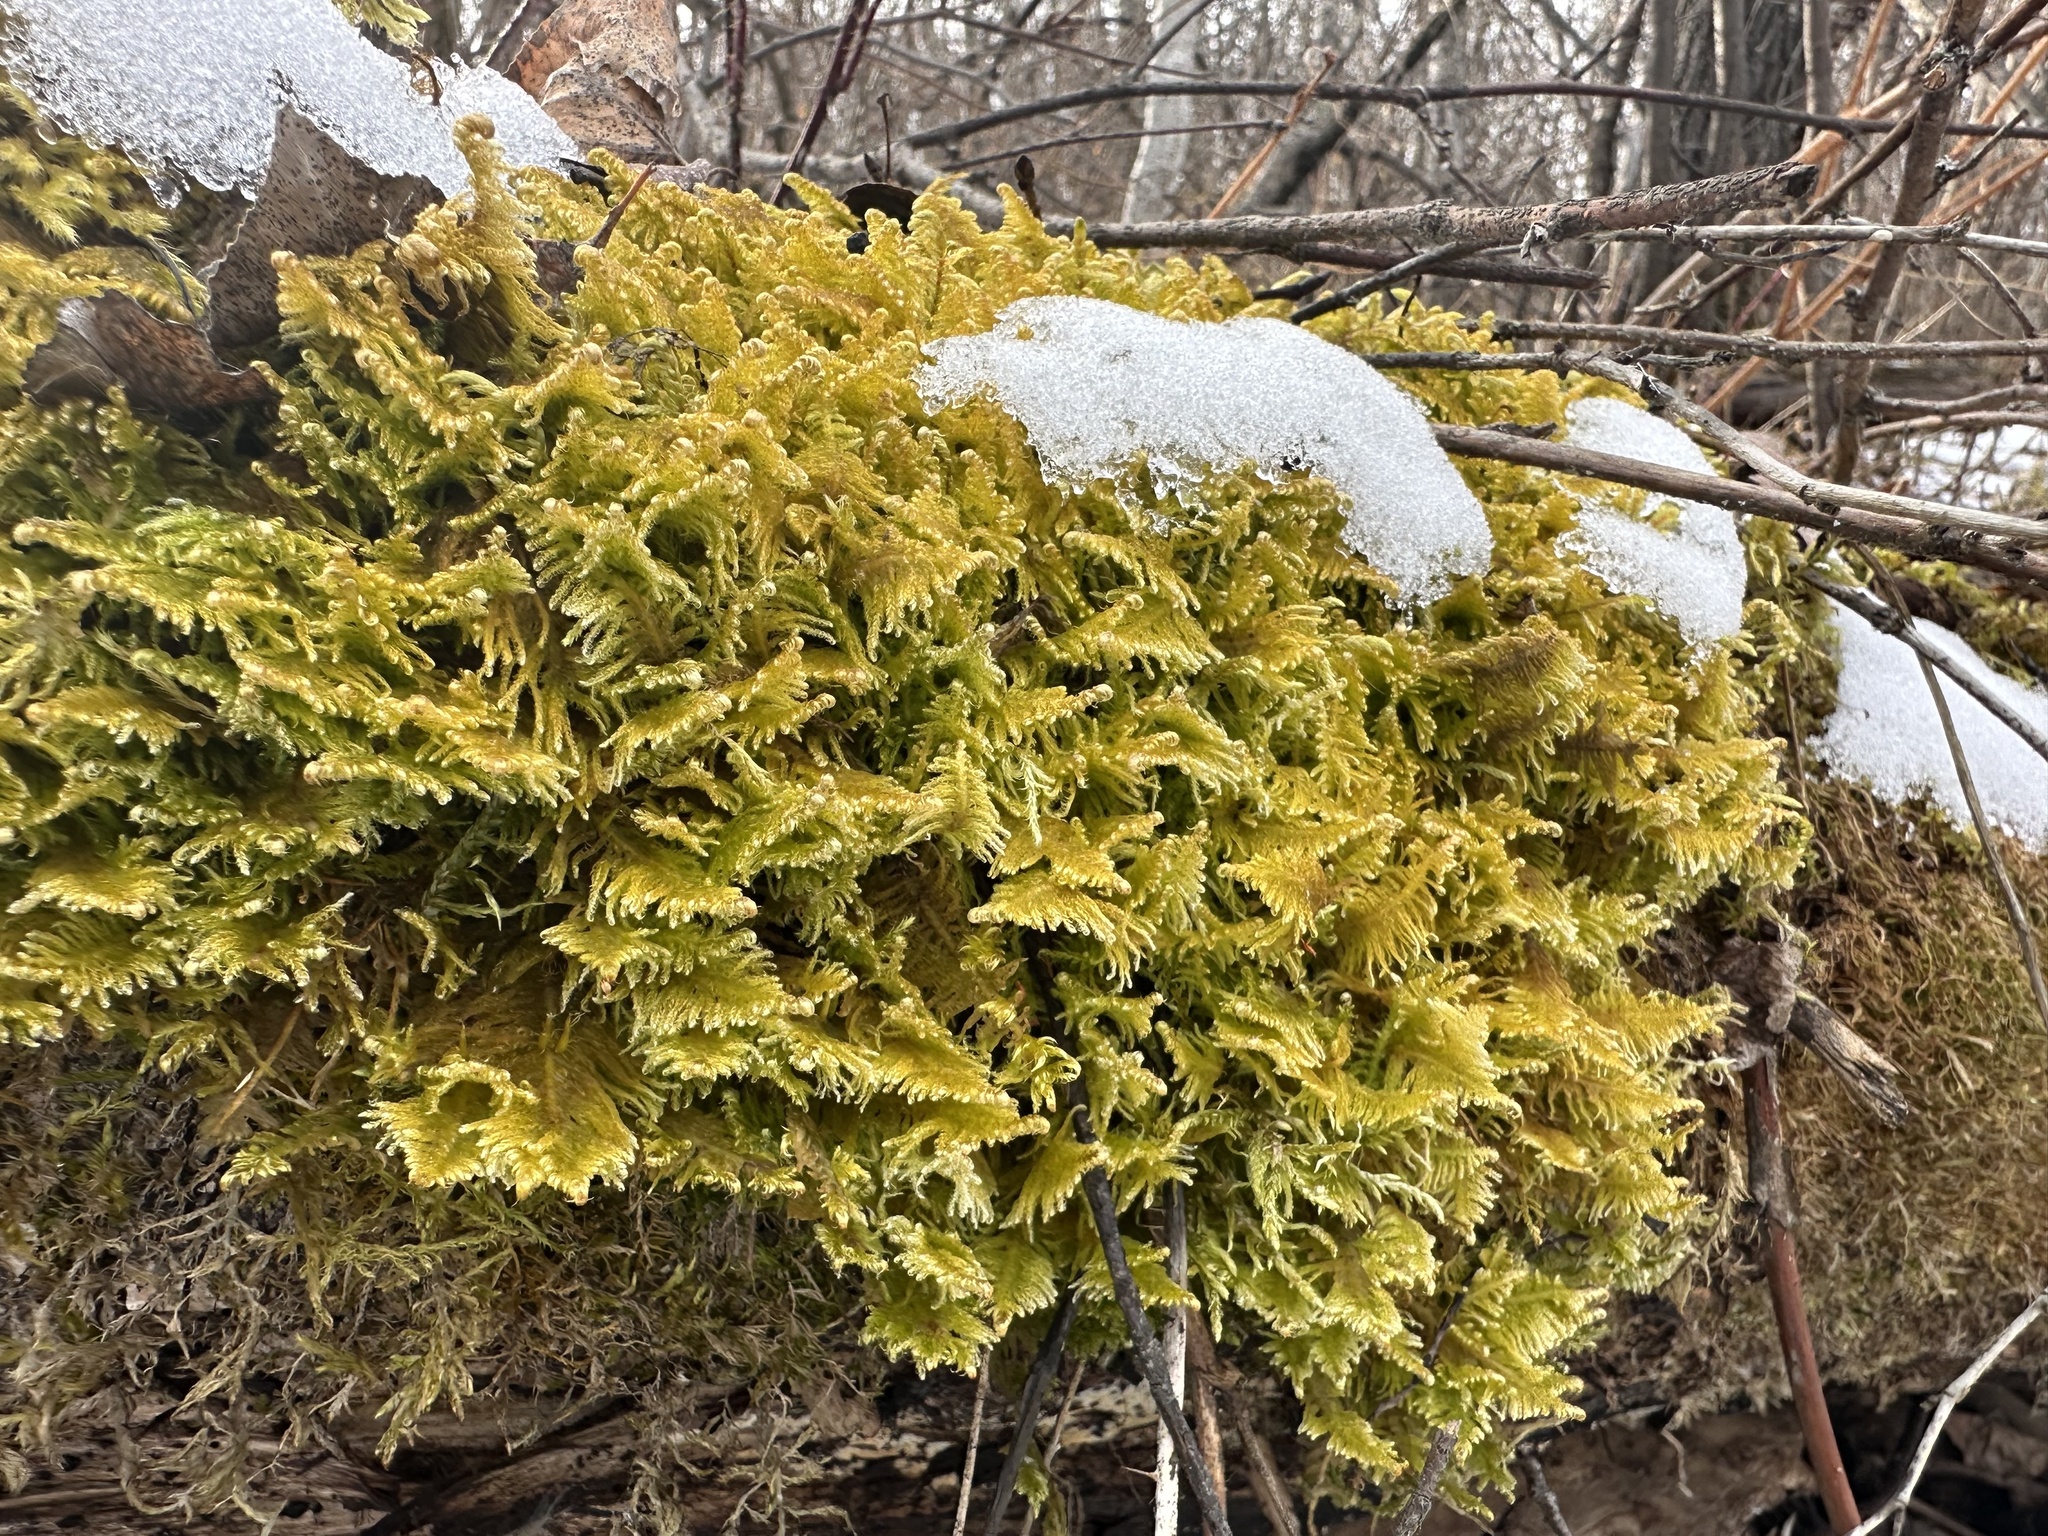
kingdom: Plantae
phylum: Bryophyta
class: Bryopsida
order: Hypnales
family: Pylaisiaceae
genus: Ptilium
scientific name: Ptilium crista-castrensis
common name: Knight's plume moss
